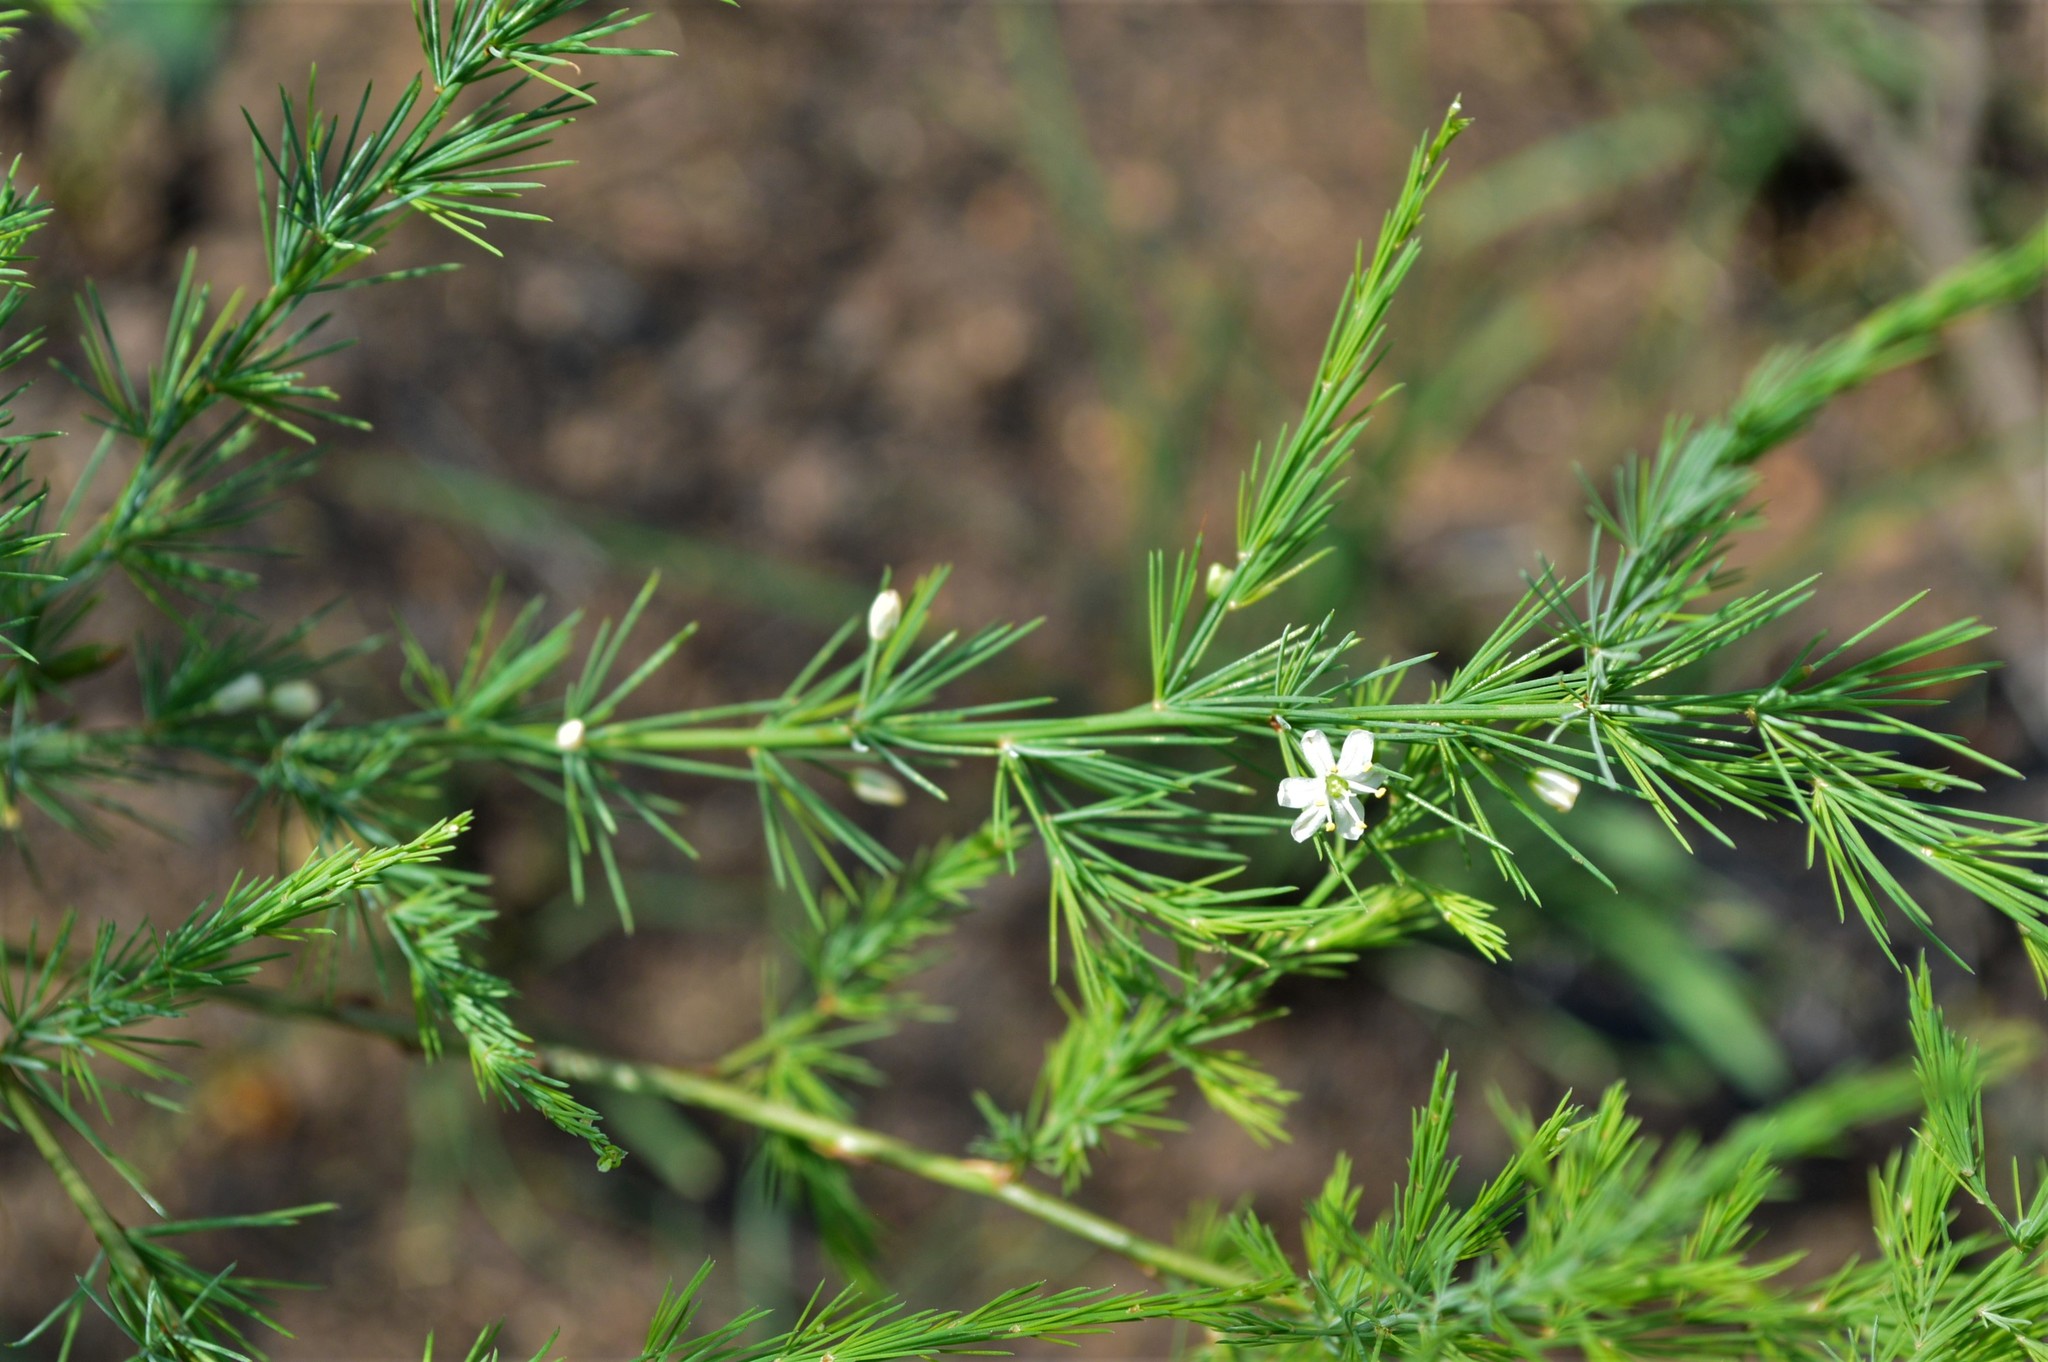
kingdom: Plantae
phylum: Tracheophyta
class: Liliopsida
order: Asparagales
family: Asparagaceae
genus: Asparagus
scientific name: Asparagus africanus
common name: Asparagus-fern
